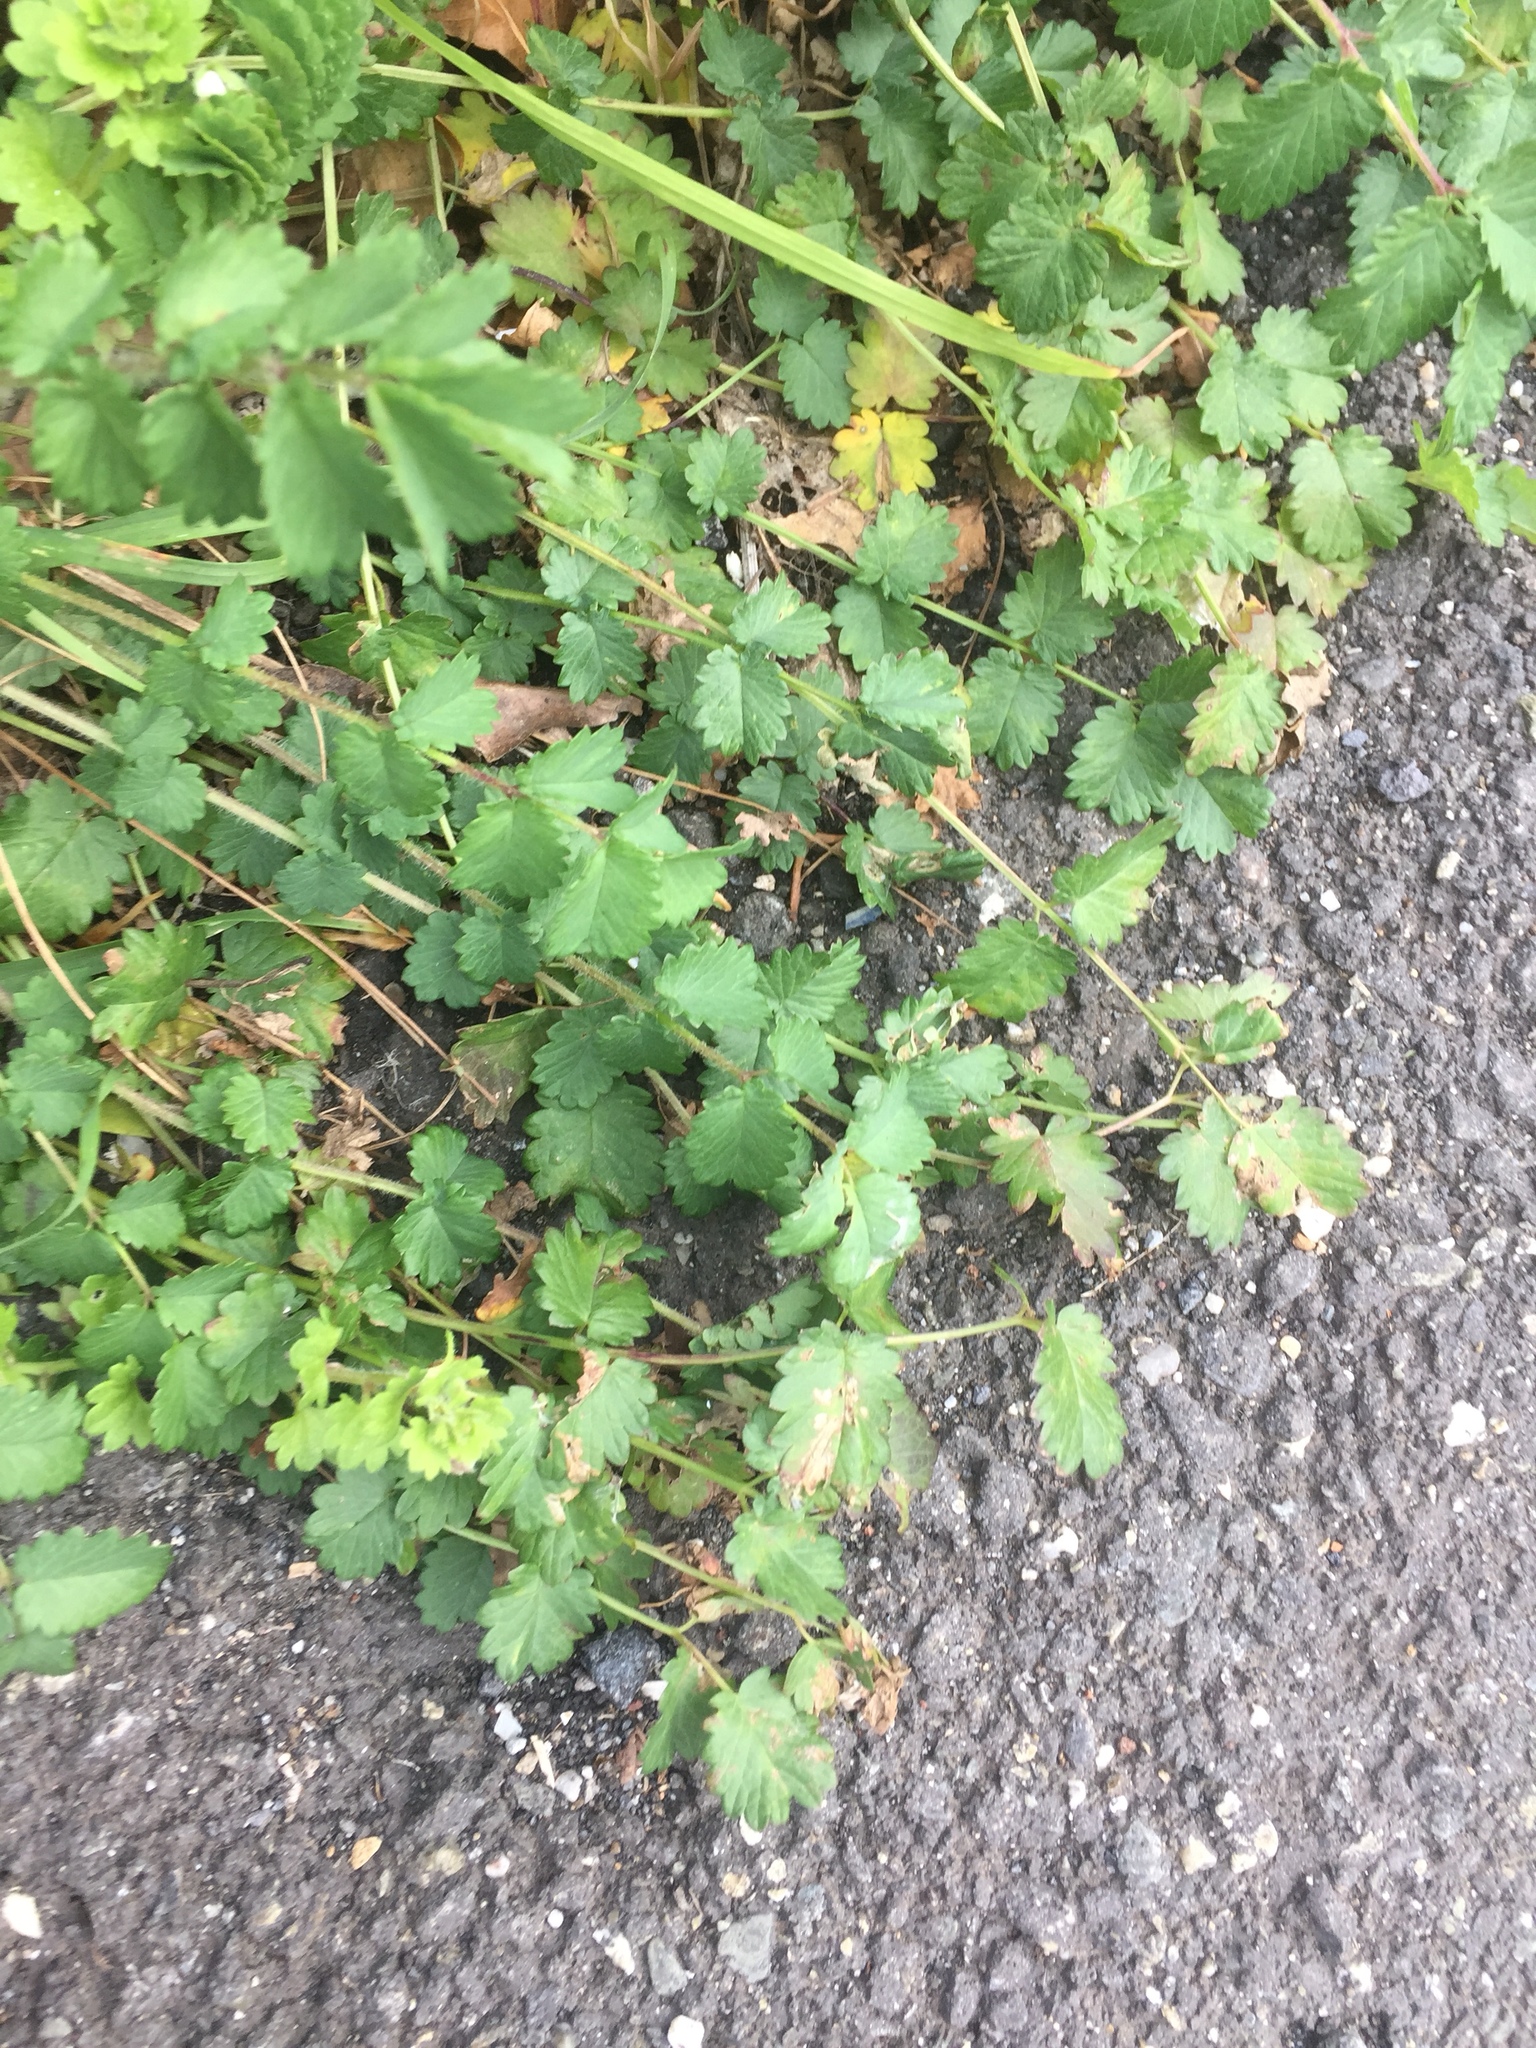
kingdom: Plantae
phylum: Tracheophyta
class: Magnoliopsida
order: Rosales
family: Rosaceae
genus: Poterium
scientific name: Poterium sanguisorba
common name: Salad burnet
